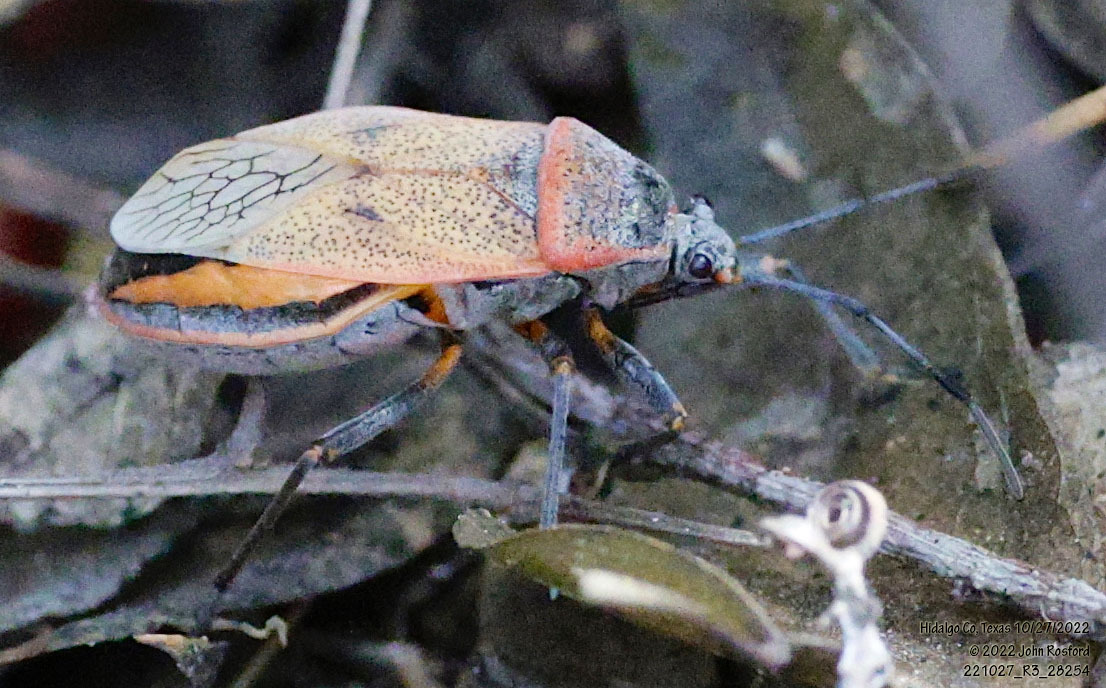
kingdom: Animalia
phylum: Arthropoda
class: Insecta
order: Hemiptera
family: Largidae
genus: Largus
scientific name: Largus maculatus
